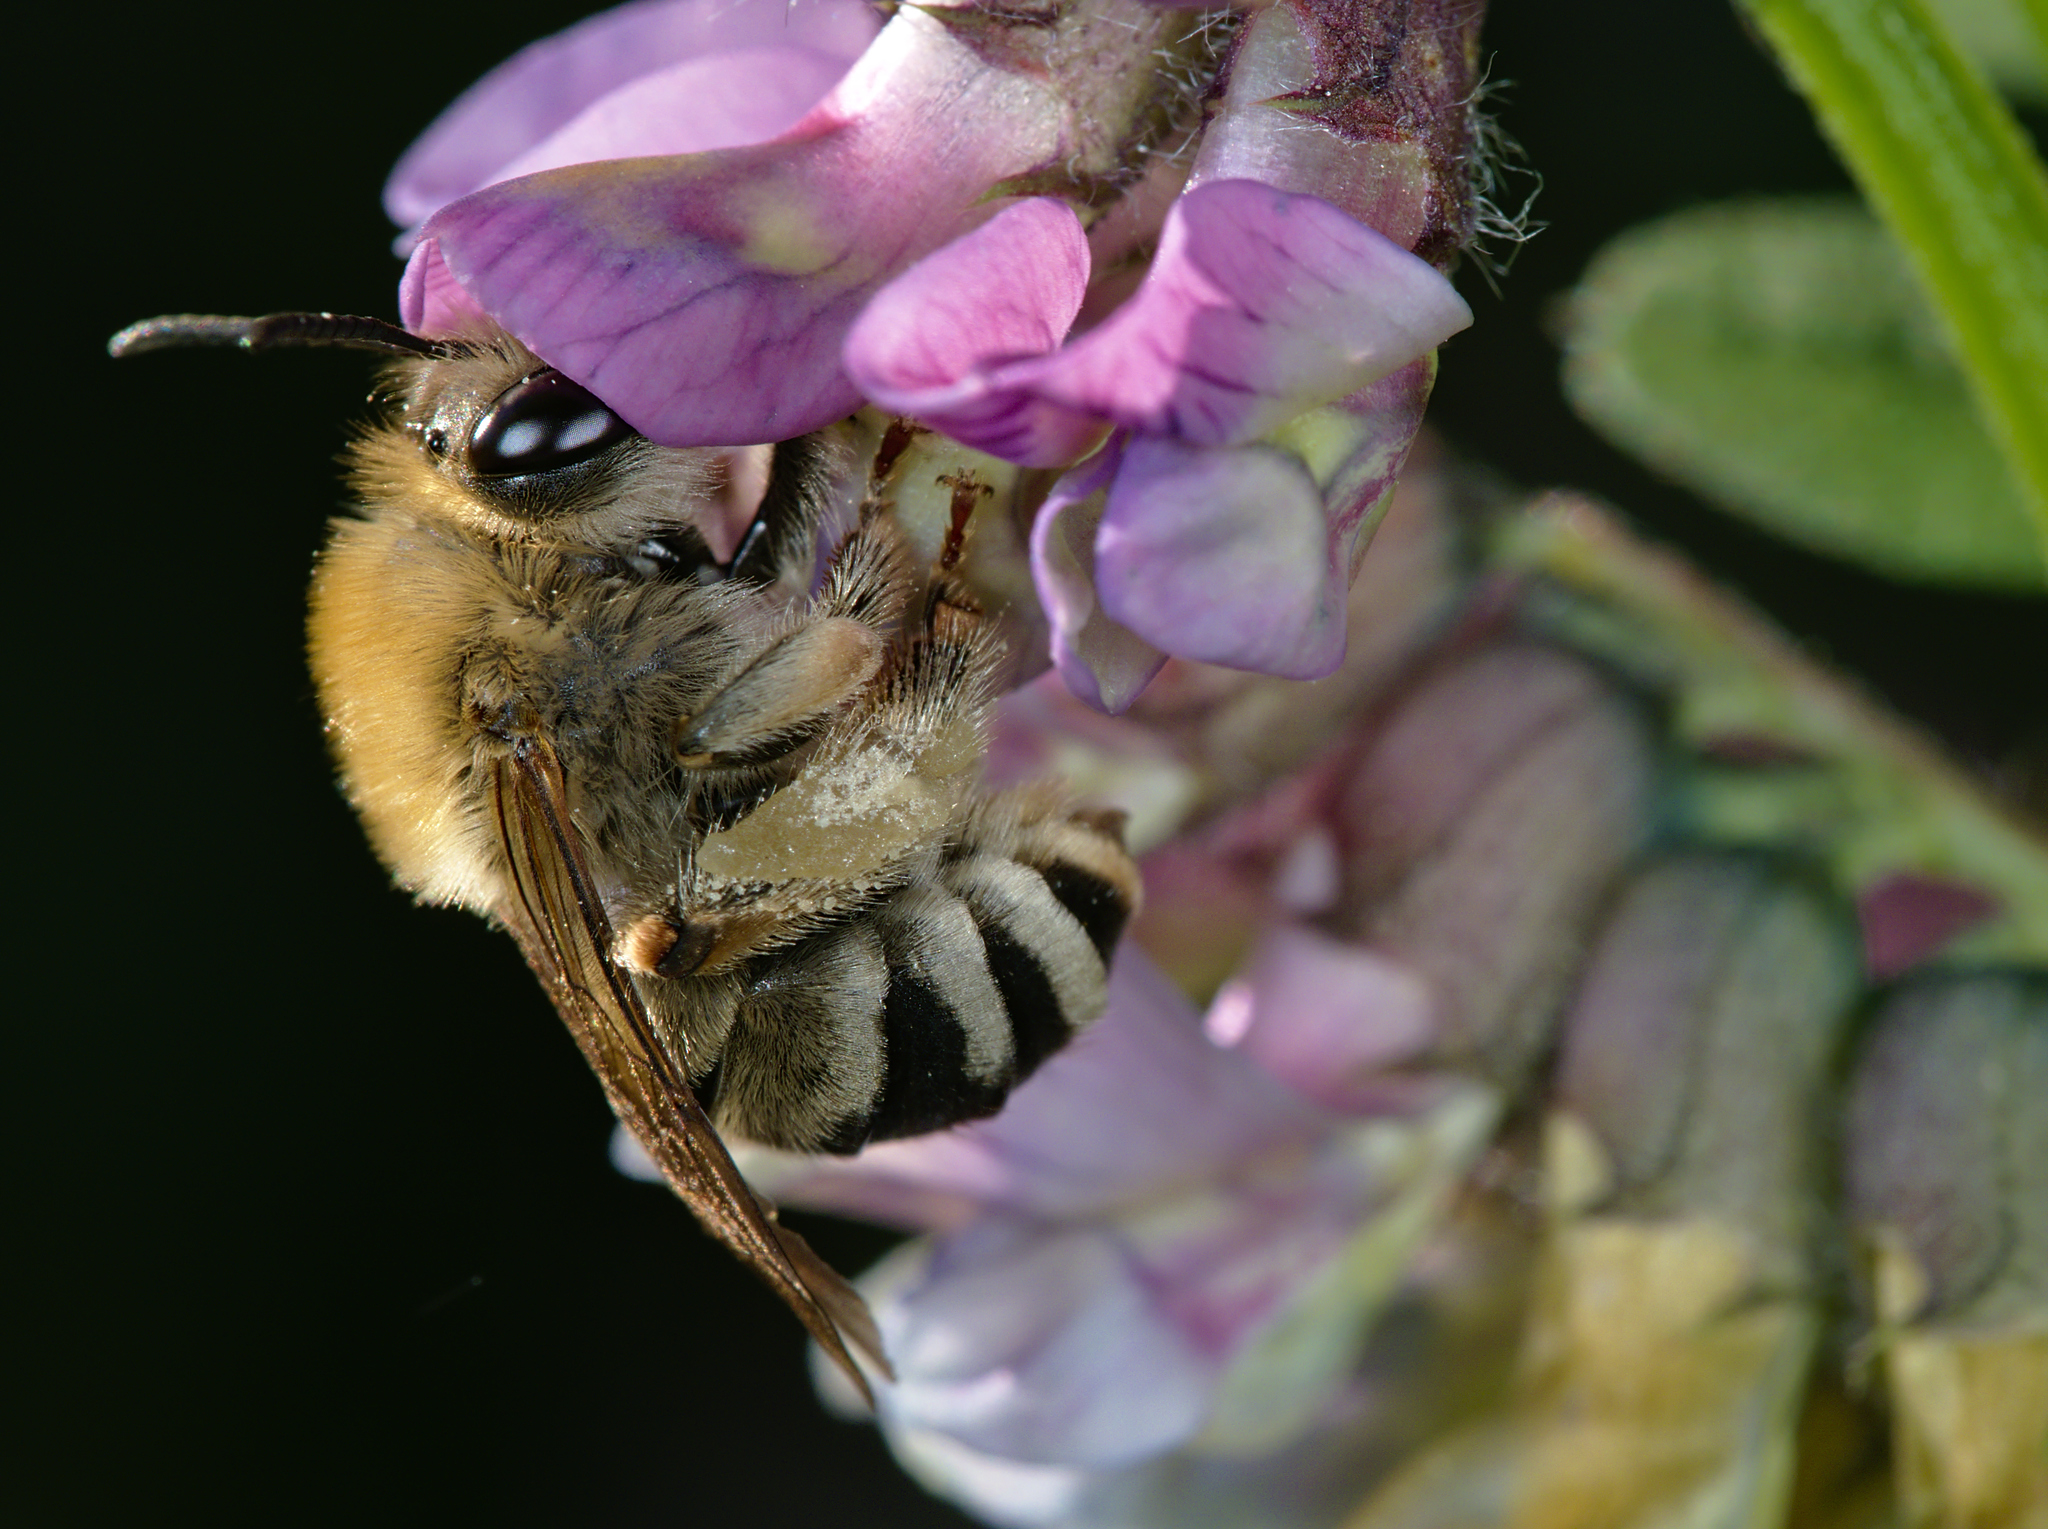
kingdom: Animalia
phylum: Arthropoda
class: Insecta
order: Hymenoptera
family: Apidae
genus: Eucera
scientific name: Eucera nigrescens
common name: Tuberculate long-horned bee
